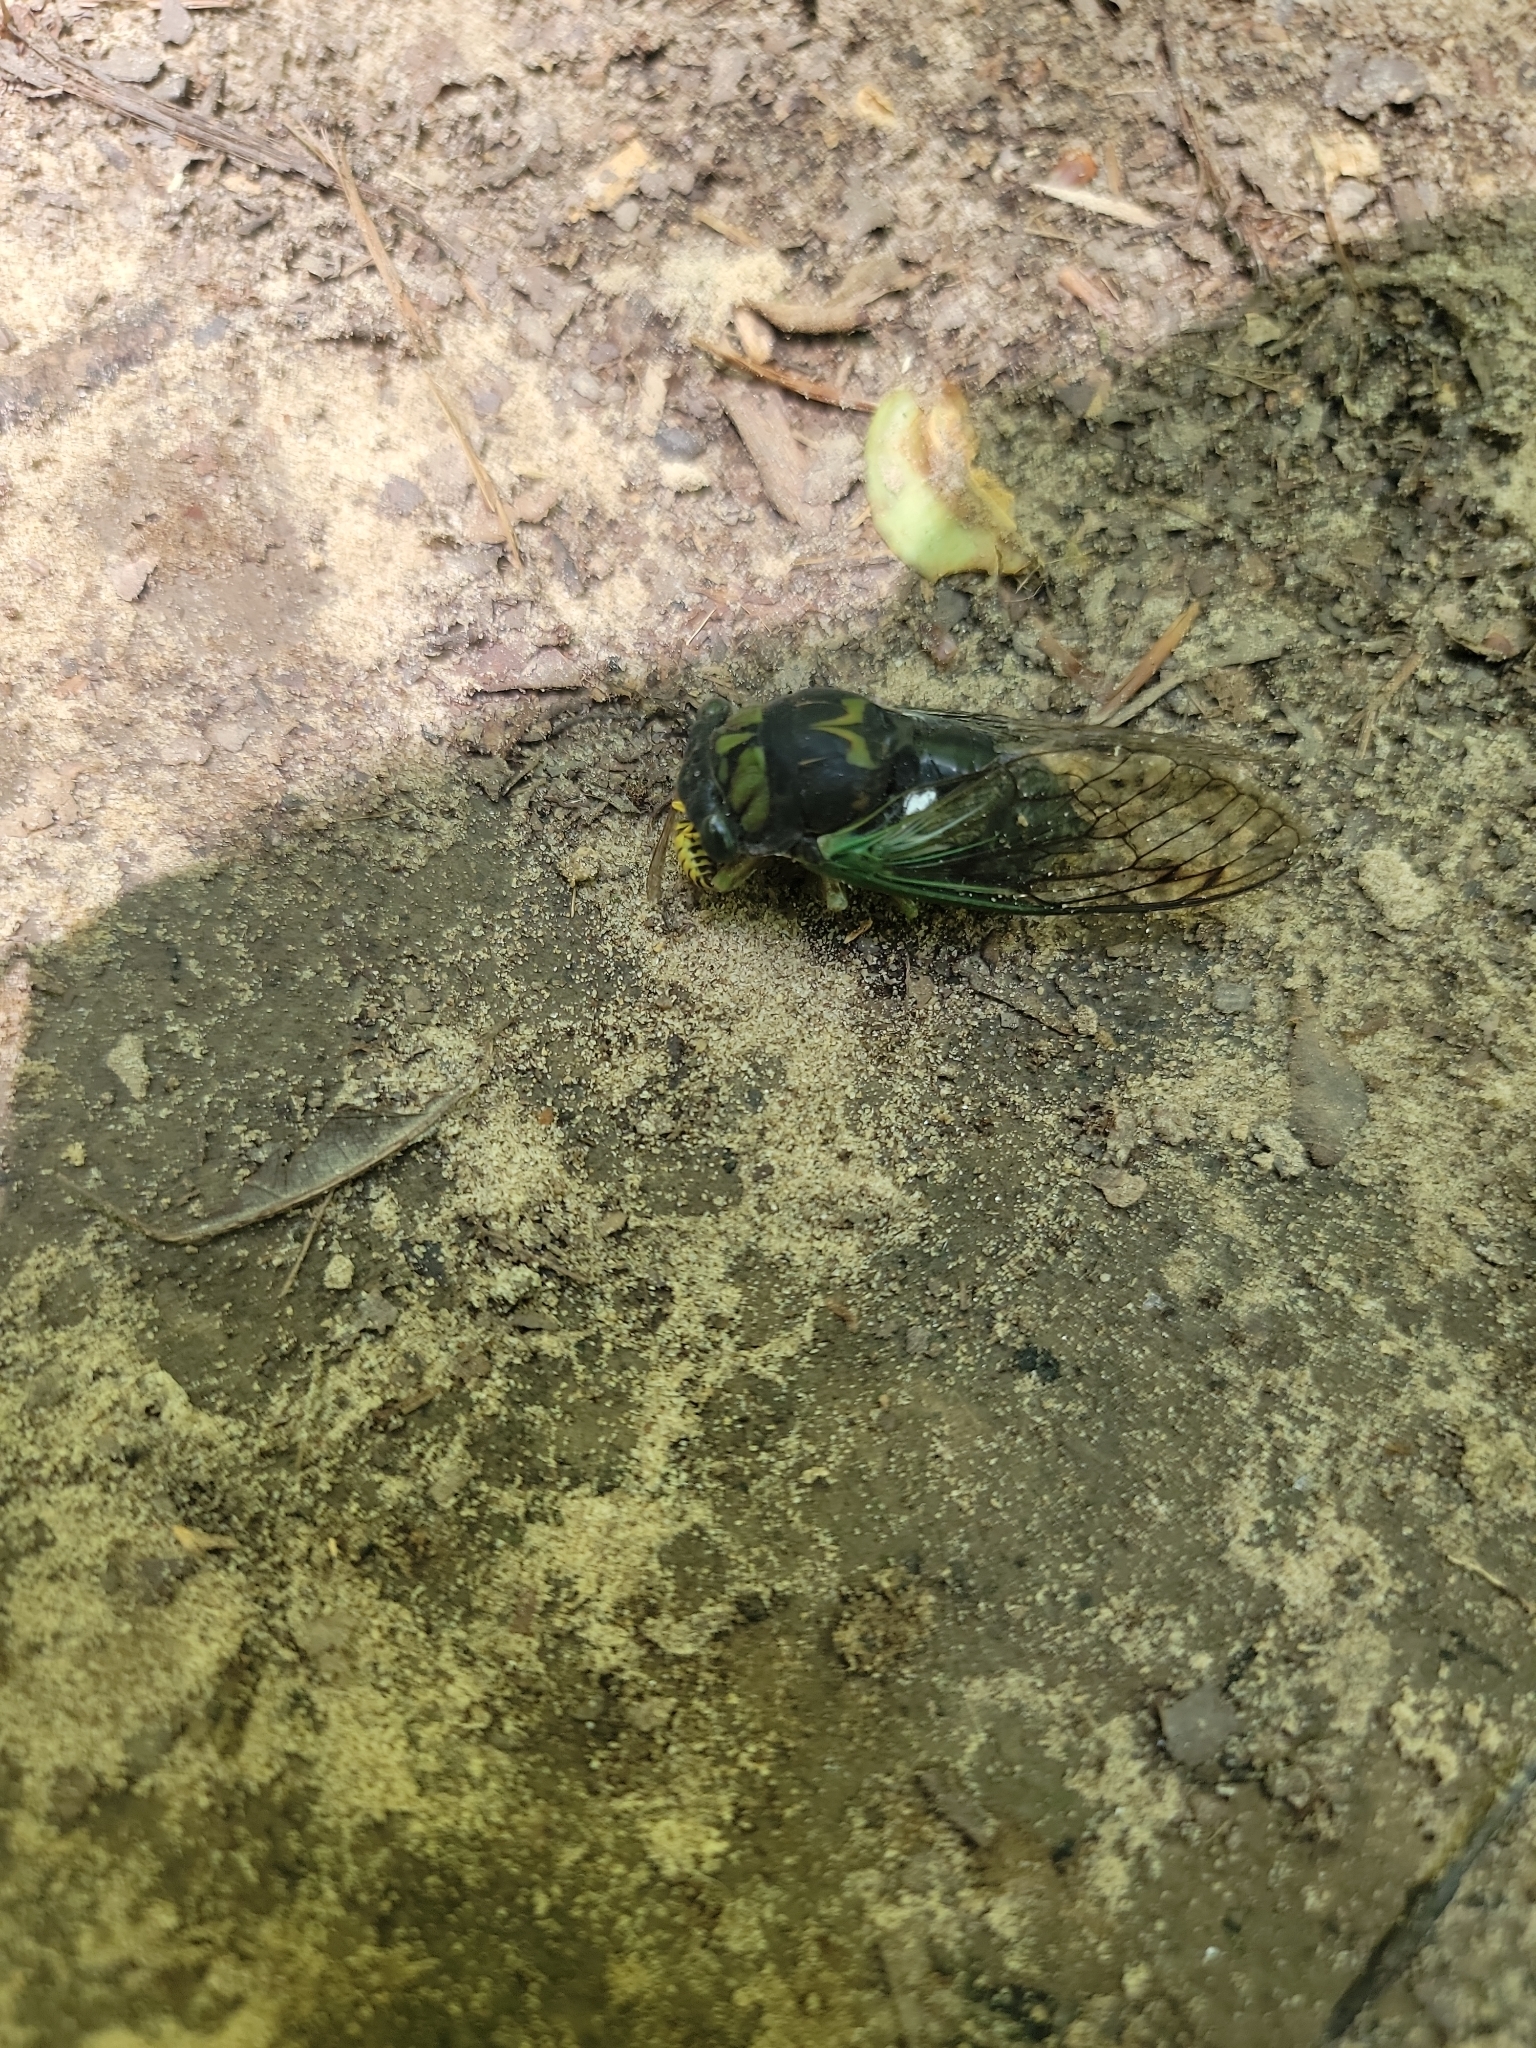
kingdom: Animalia
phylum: Arthropoda
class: Insecta
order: Hemiptera
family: Cicadidae
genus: Neotibicen
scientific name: Neotibicen tibicen
